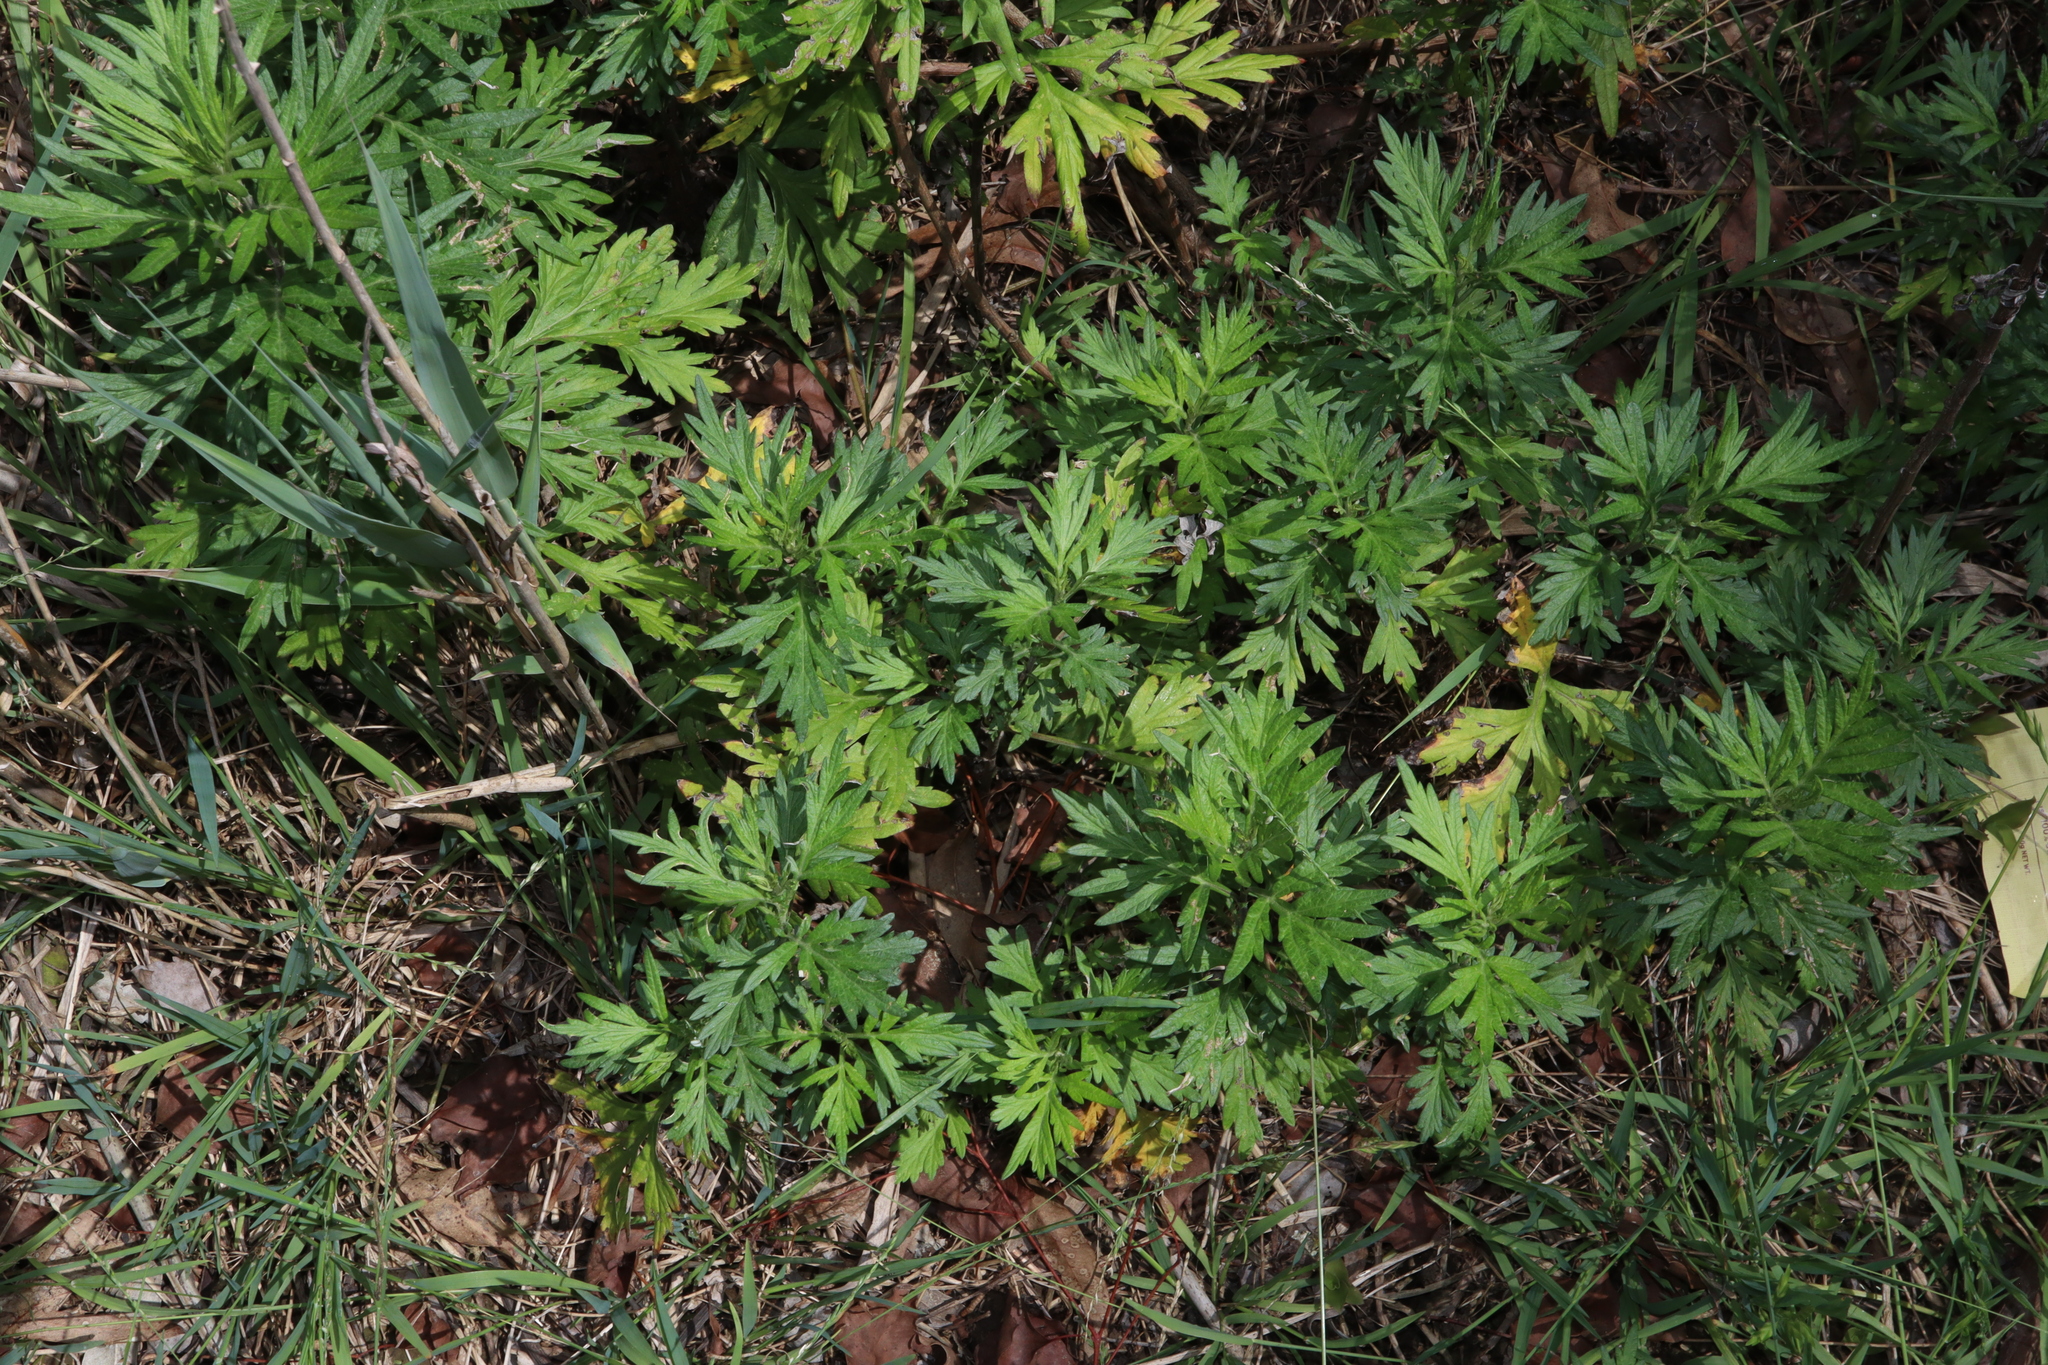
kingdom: Plantae
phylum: Tracheophyta
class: Magnoliopsida
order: Asterales
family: Asteraceae
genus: Artemisia
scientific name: Artemisia verlotiorum
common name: Chinese mugwort
